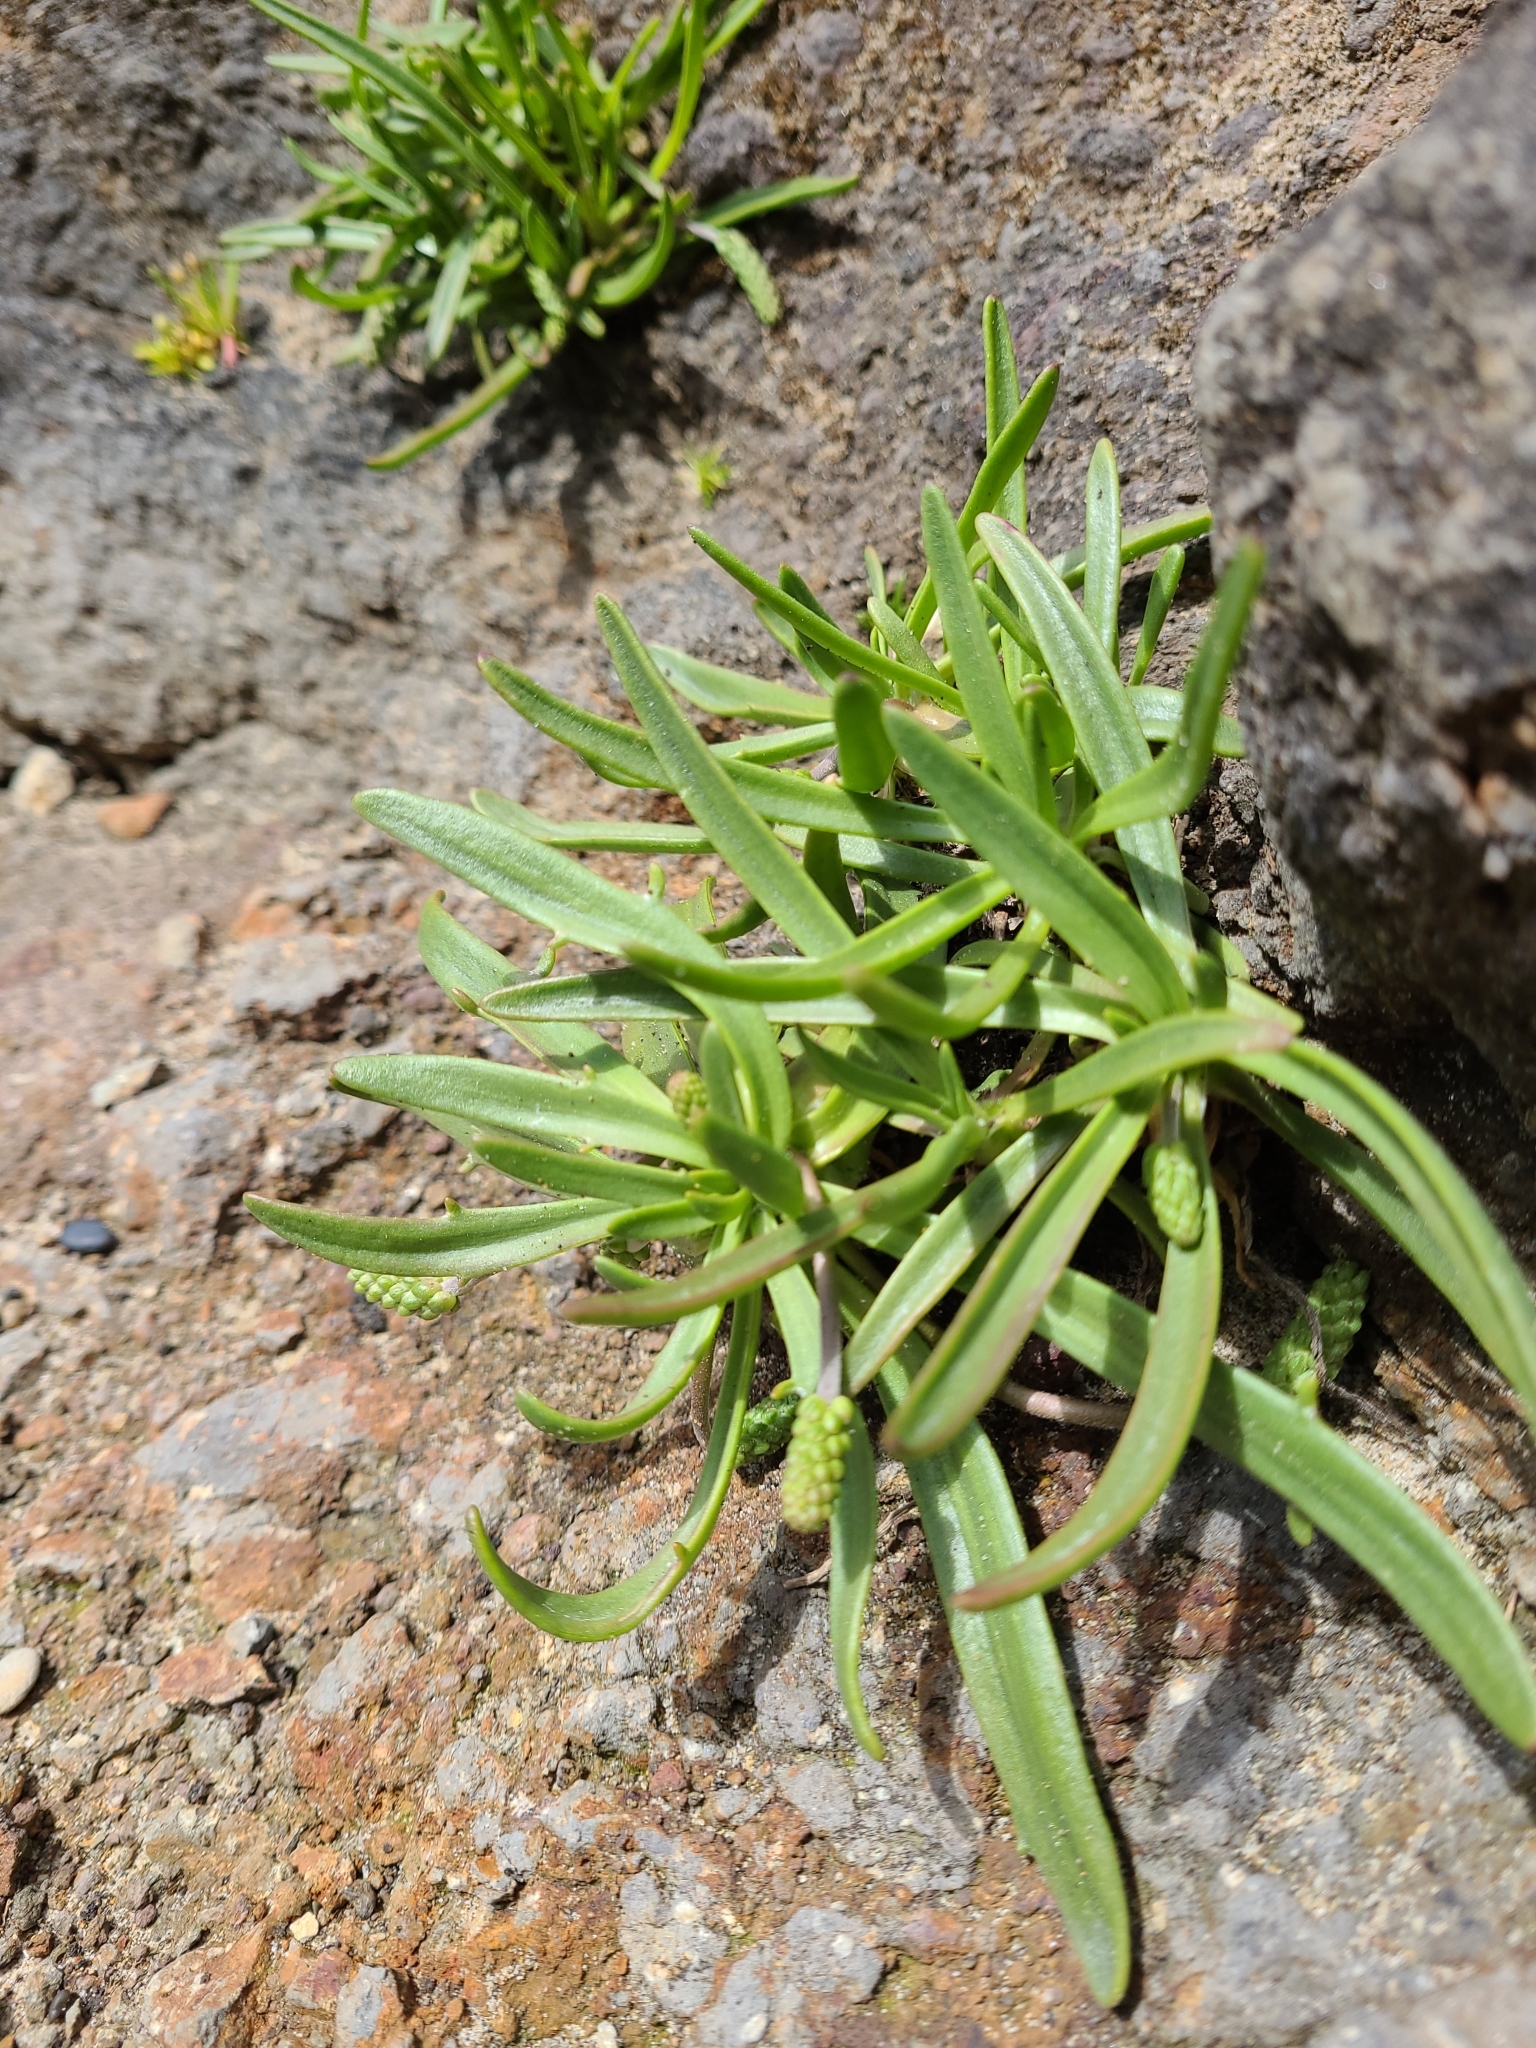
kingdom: Plantae
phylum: Tracheophyta
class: Magnoliopsida
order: Lamiales
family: Plantaginaceae
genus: Plantago
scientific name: Plantago maritima
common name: Sea plantain
